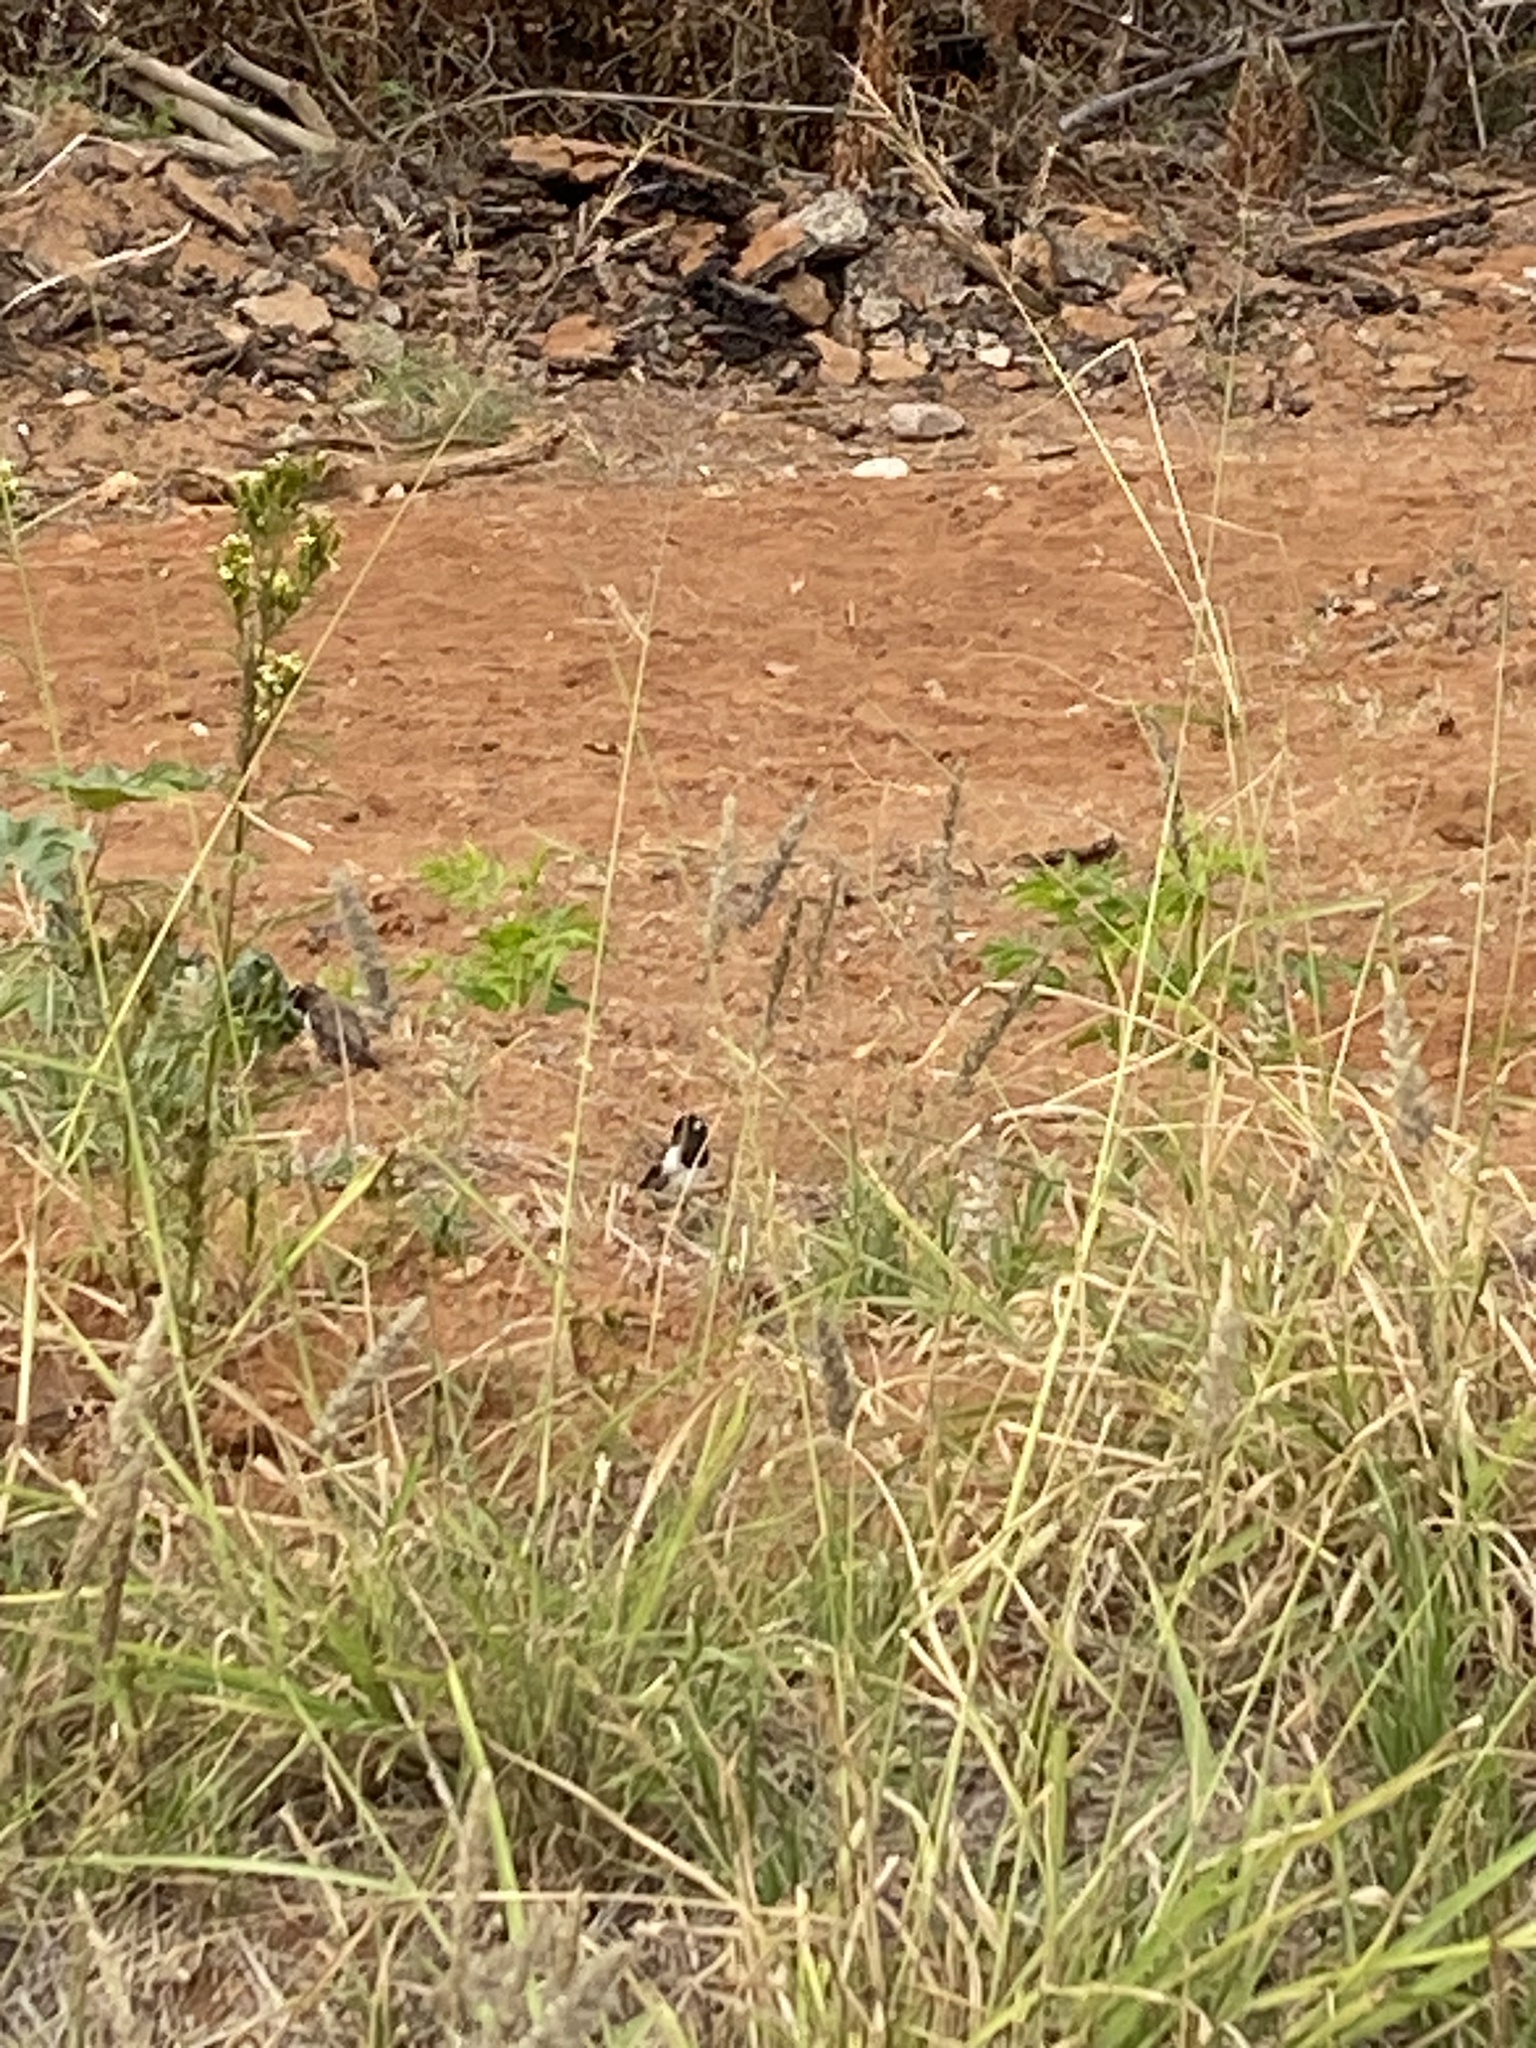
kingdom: Animalia
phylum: Chordata
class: Aves
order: Passeriformes
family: Estrildidae
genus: Lonchura
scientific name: Lonchura cucullata
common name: Bronze mannikin
